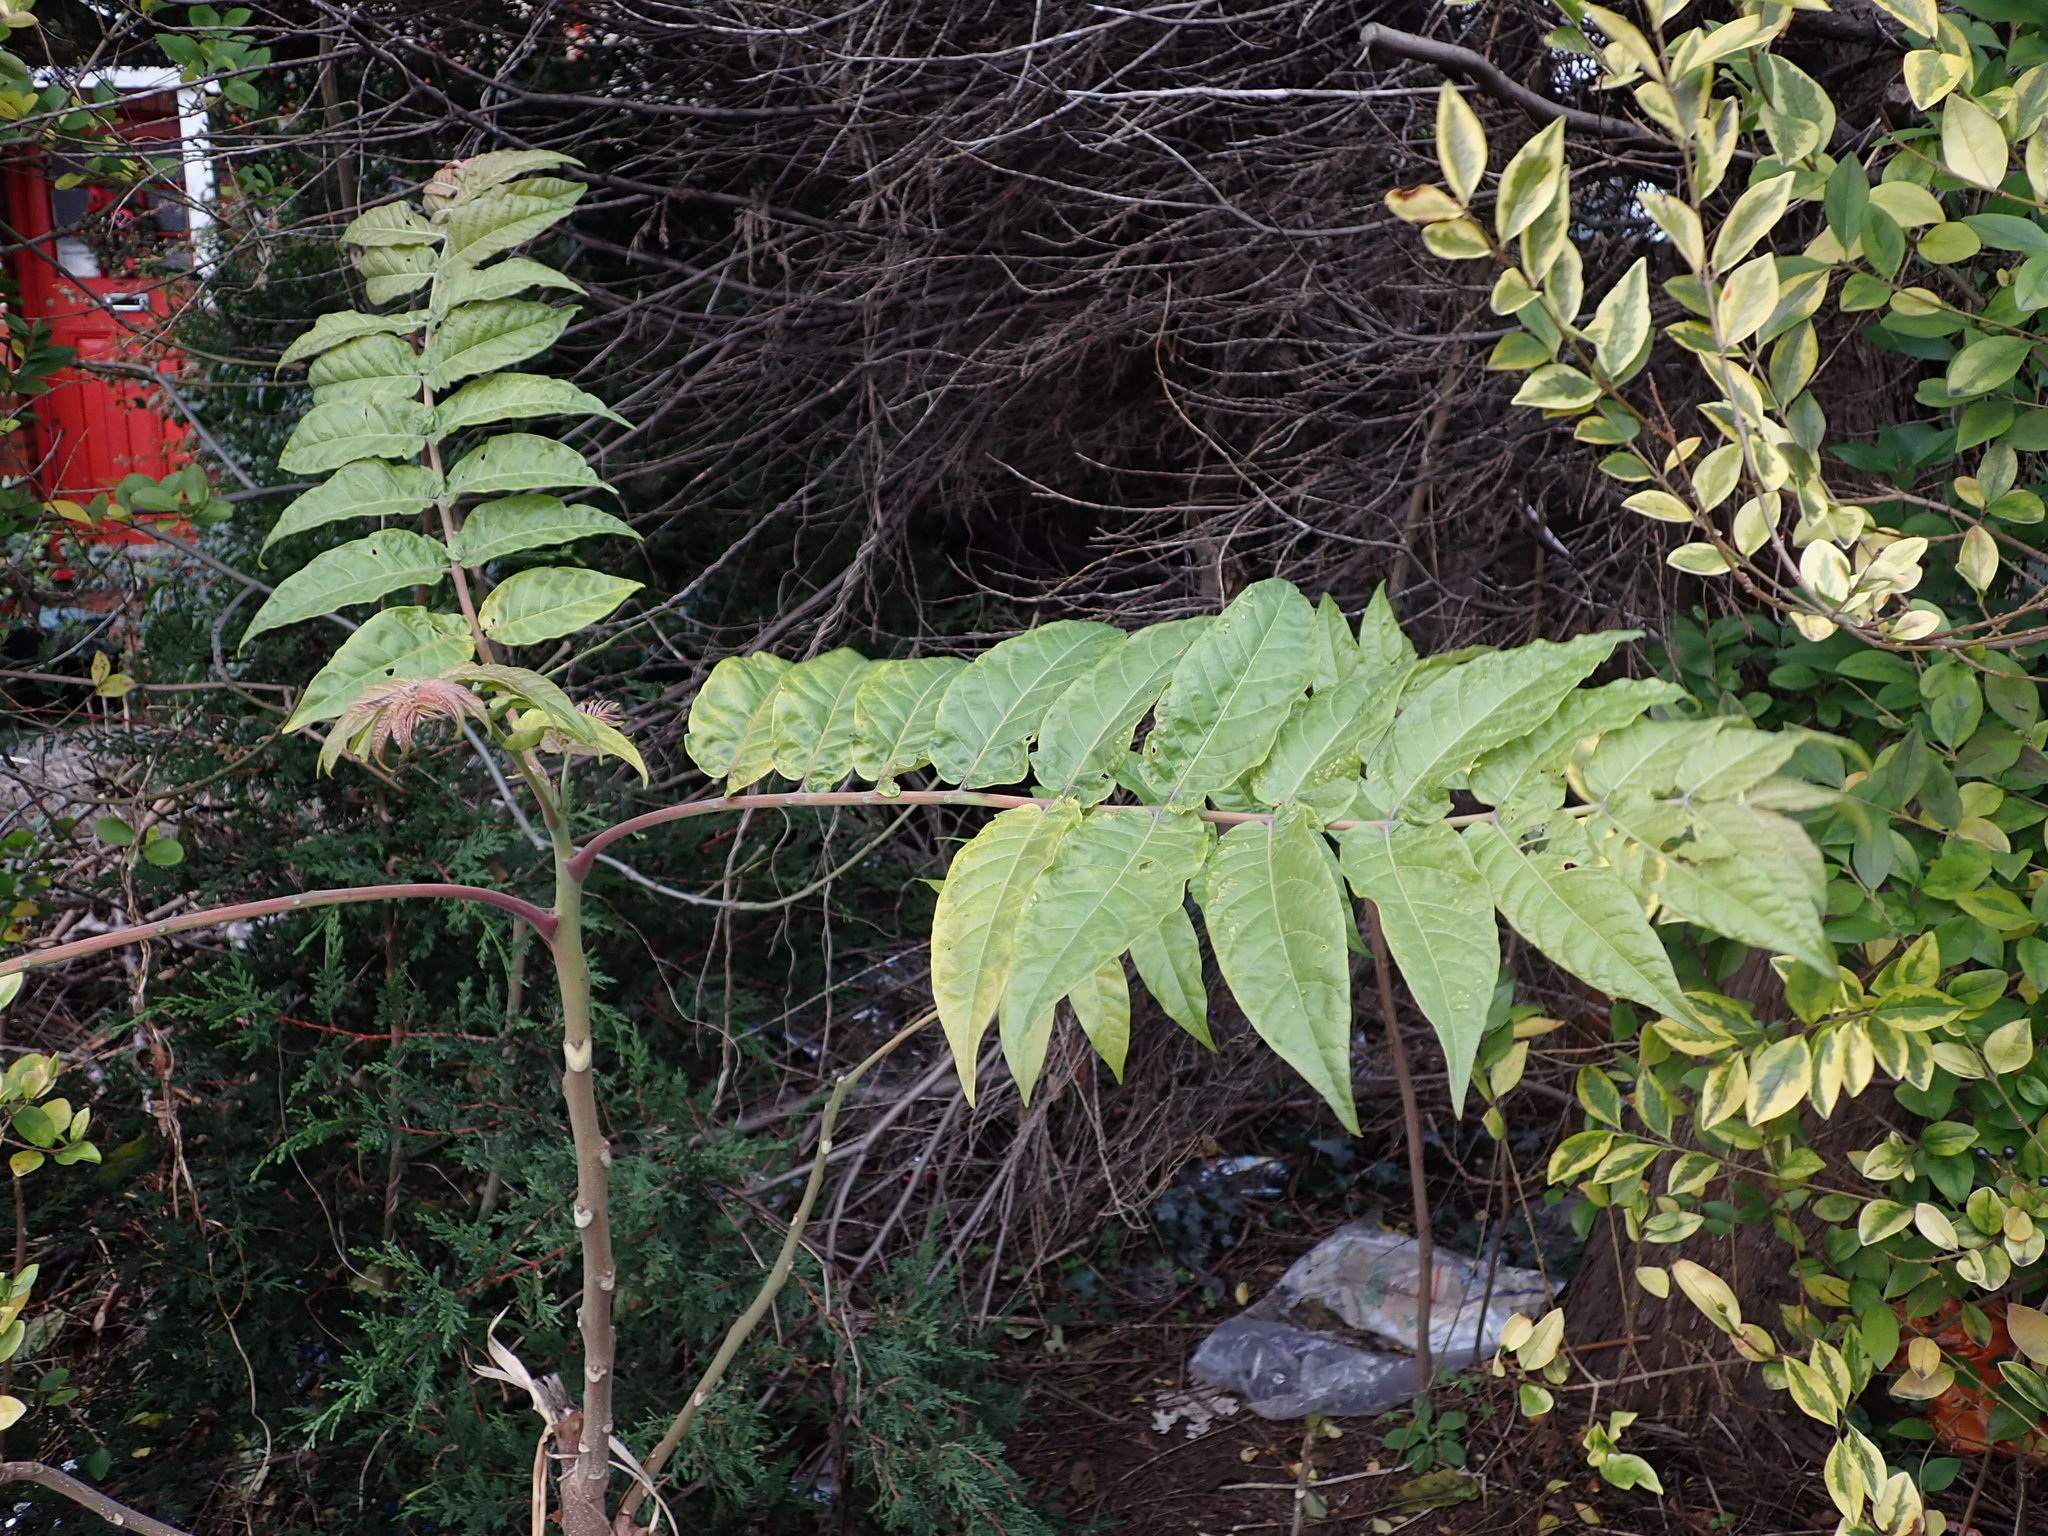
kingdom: Plantae
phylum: Tracheophyta
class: Magnoliopsida
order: Sapindales
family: Simaroubaceae
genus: Ailanthus
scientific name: Ailanthus altissima
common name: Tree-of-heaven
